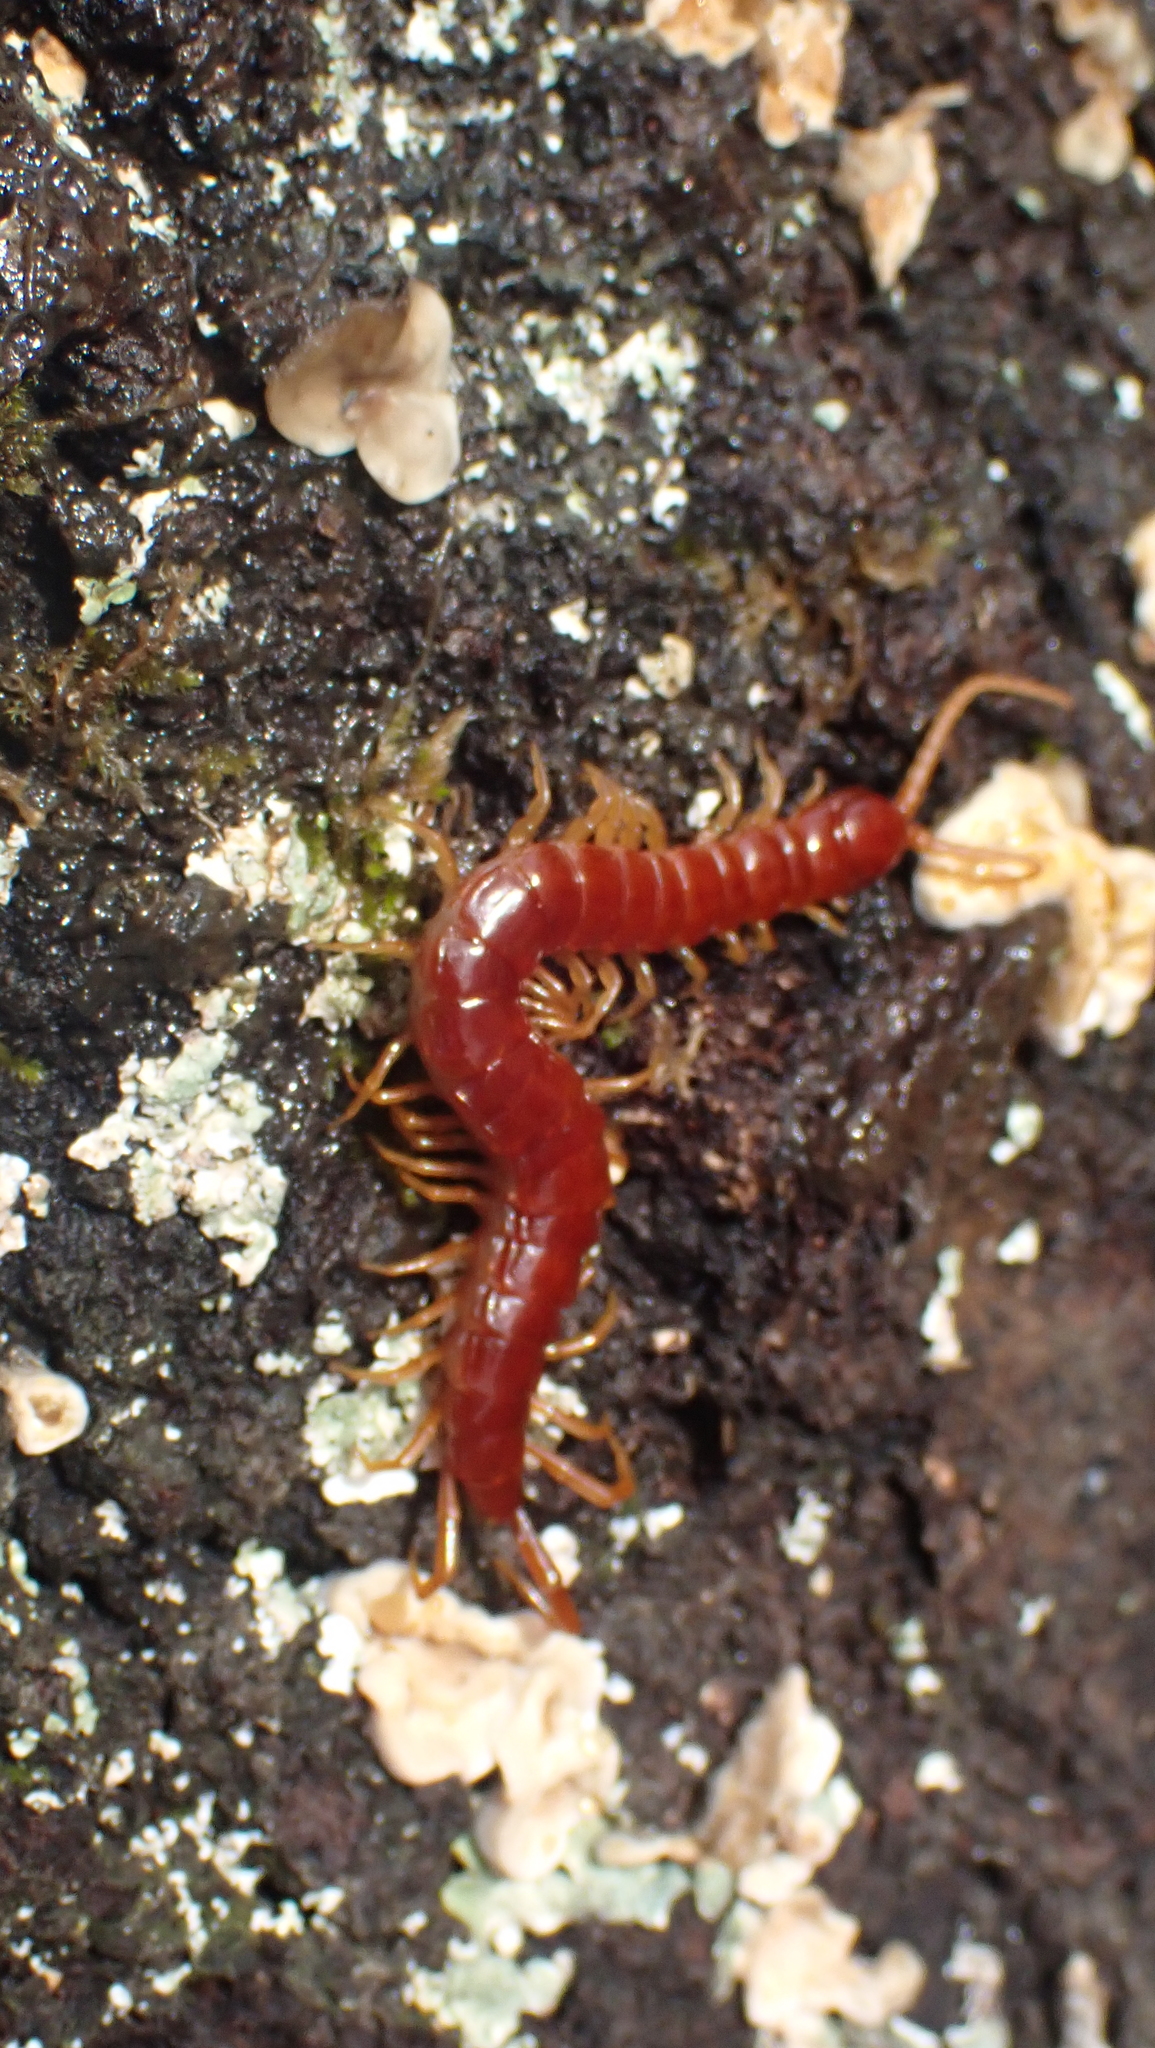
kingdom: Animalia
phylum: Arthropoda
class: Chilopoda
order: Scolopendromorpha
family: Scolopocryptopidae
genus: Scolopocryptops
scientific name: Scolopocryptops sexspinosus
